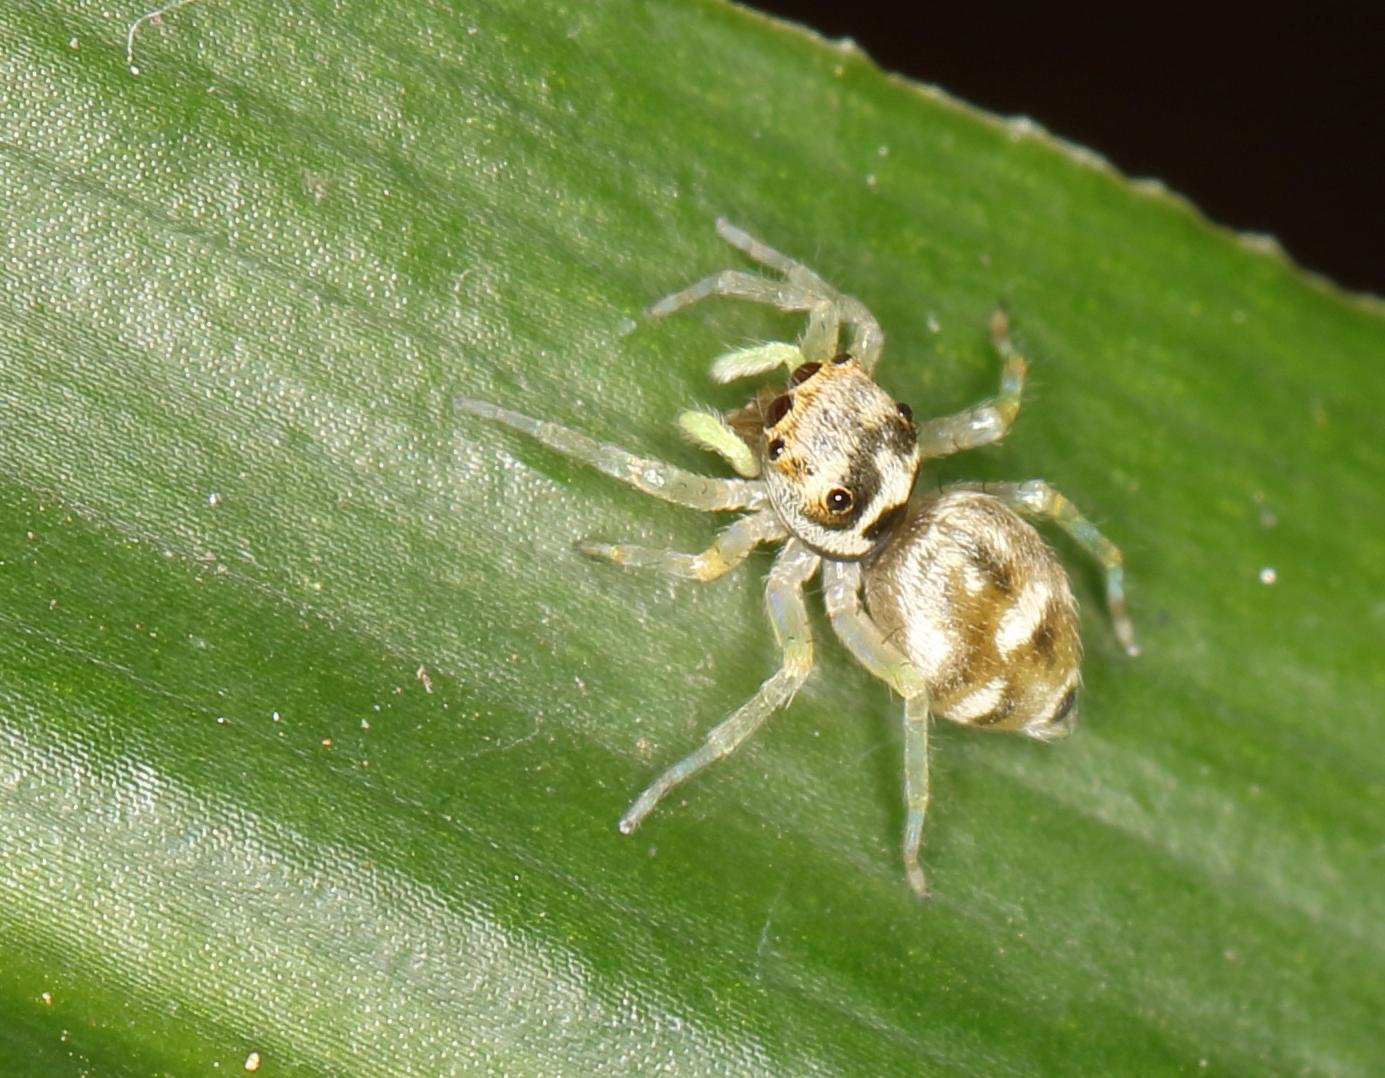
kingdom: Animalia
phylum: Arthropoda
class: Arachnida
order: Araneae
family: Salticidae
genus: Phintella
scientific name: Phintella aequipes
